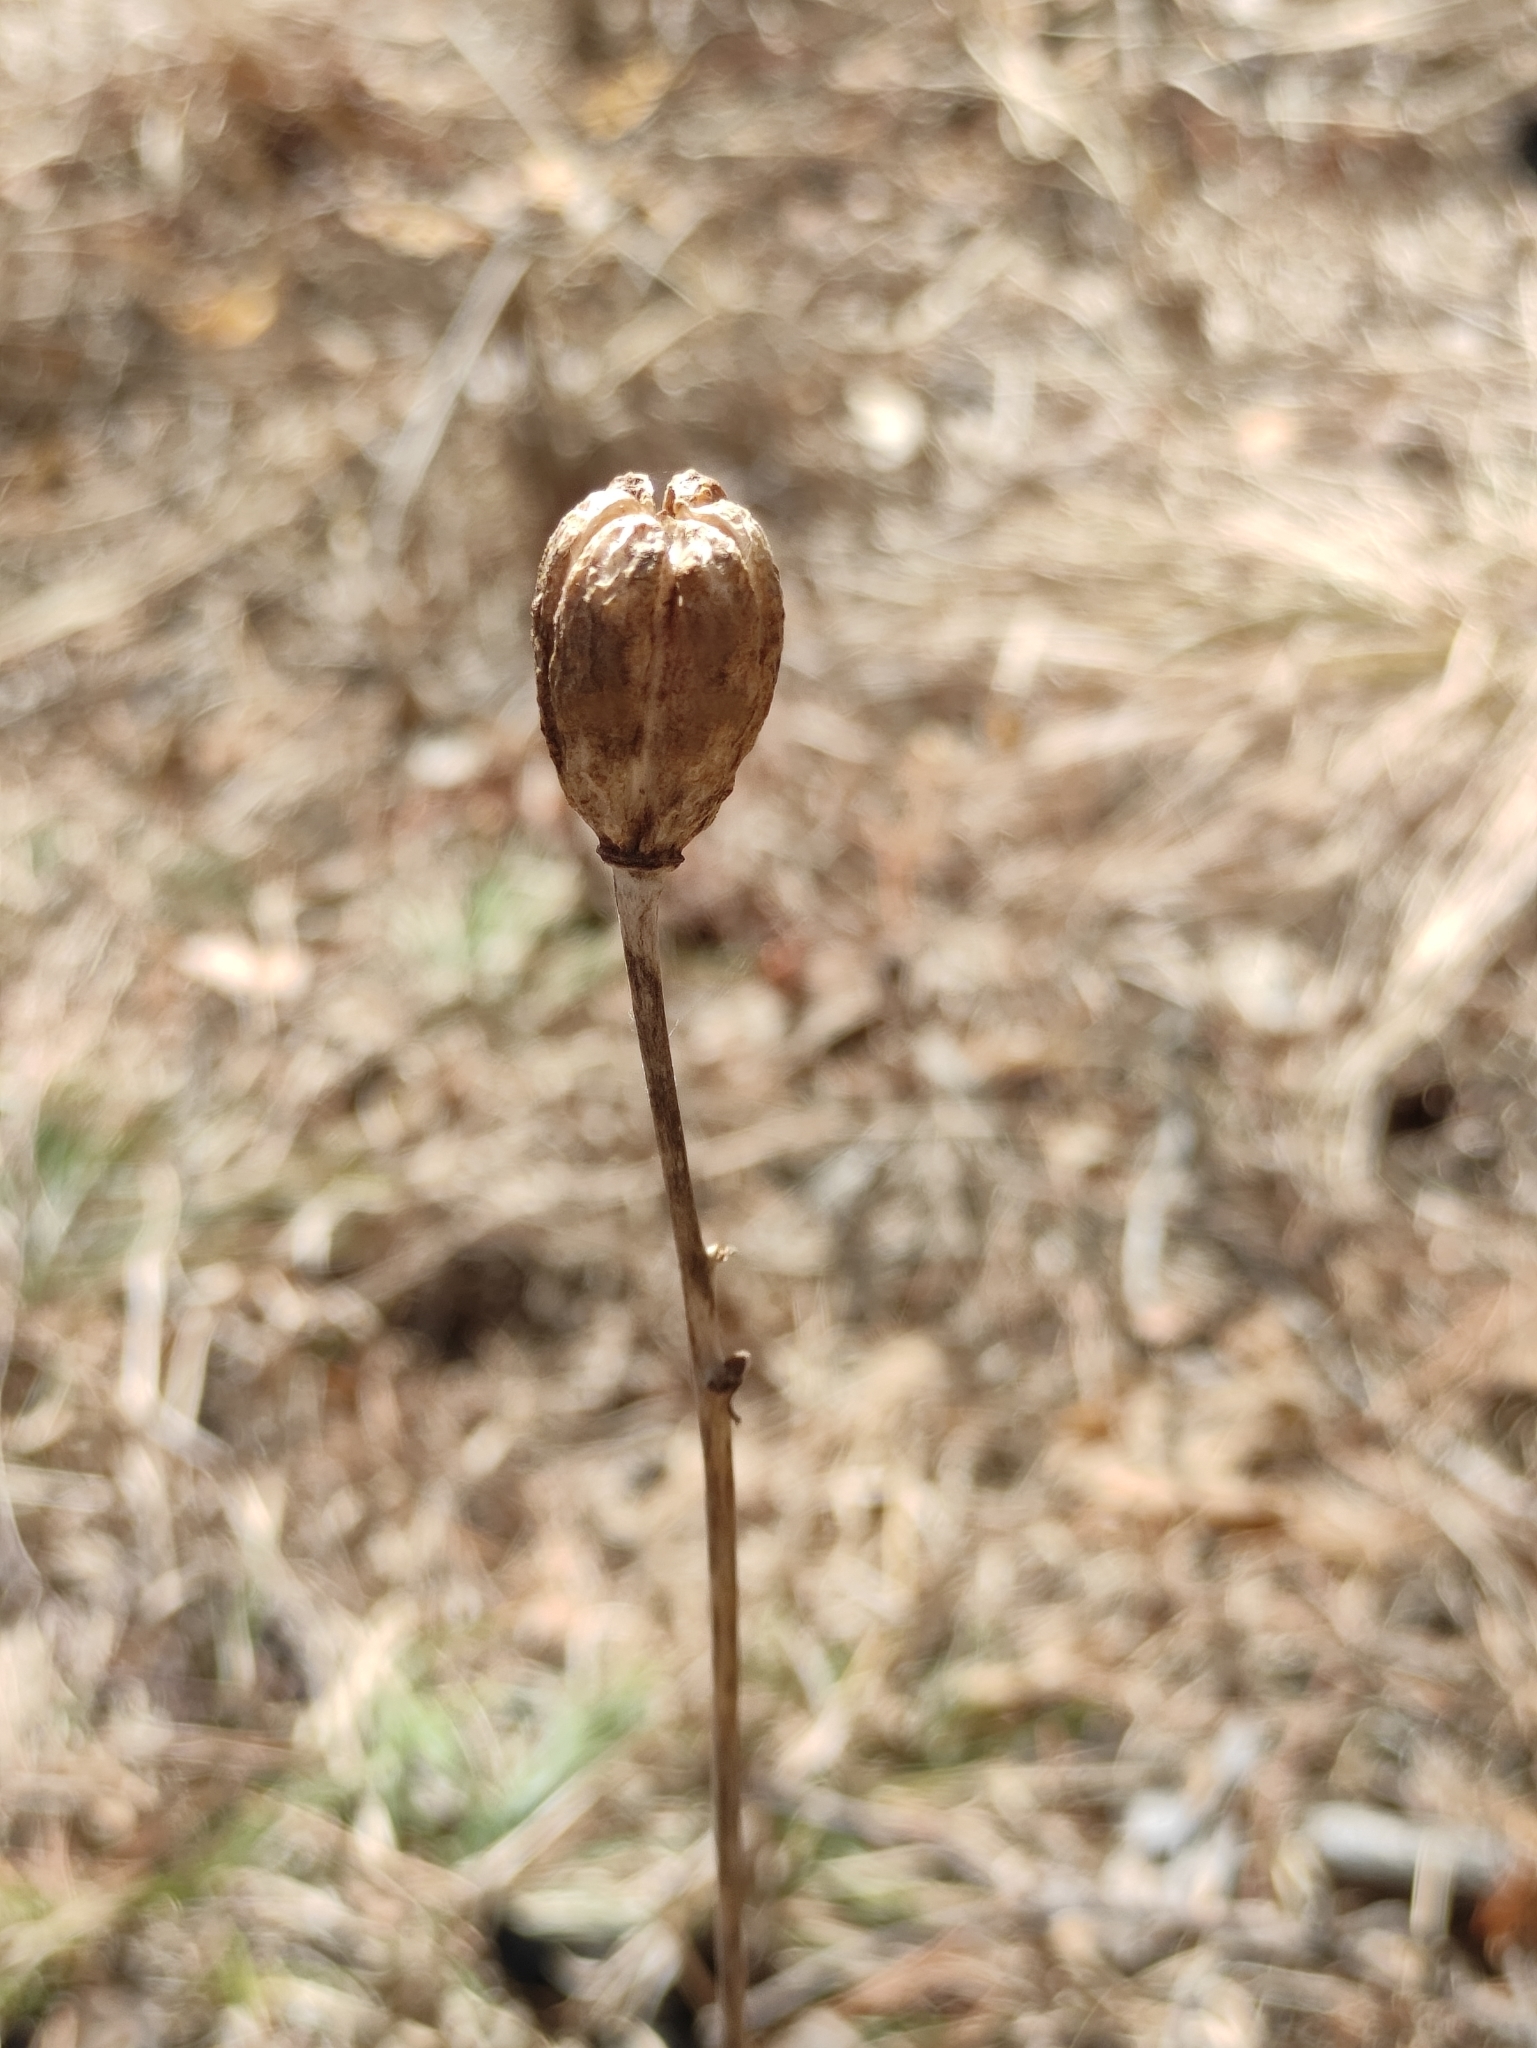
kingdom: Plantae
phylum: Tracheophyta
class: Liliopsida
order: Liliales
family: Liliaceae
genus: Lilium
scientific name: Lilium pumilum
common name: Coral lily
